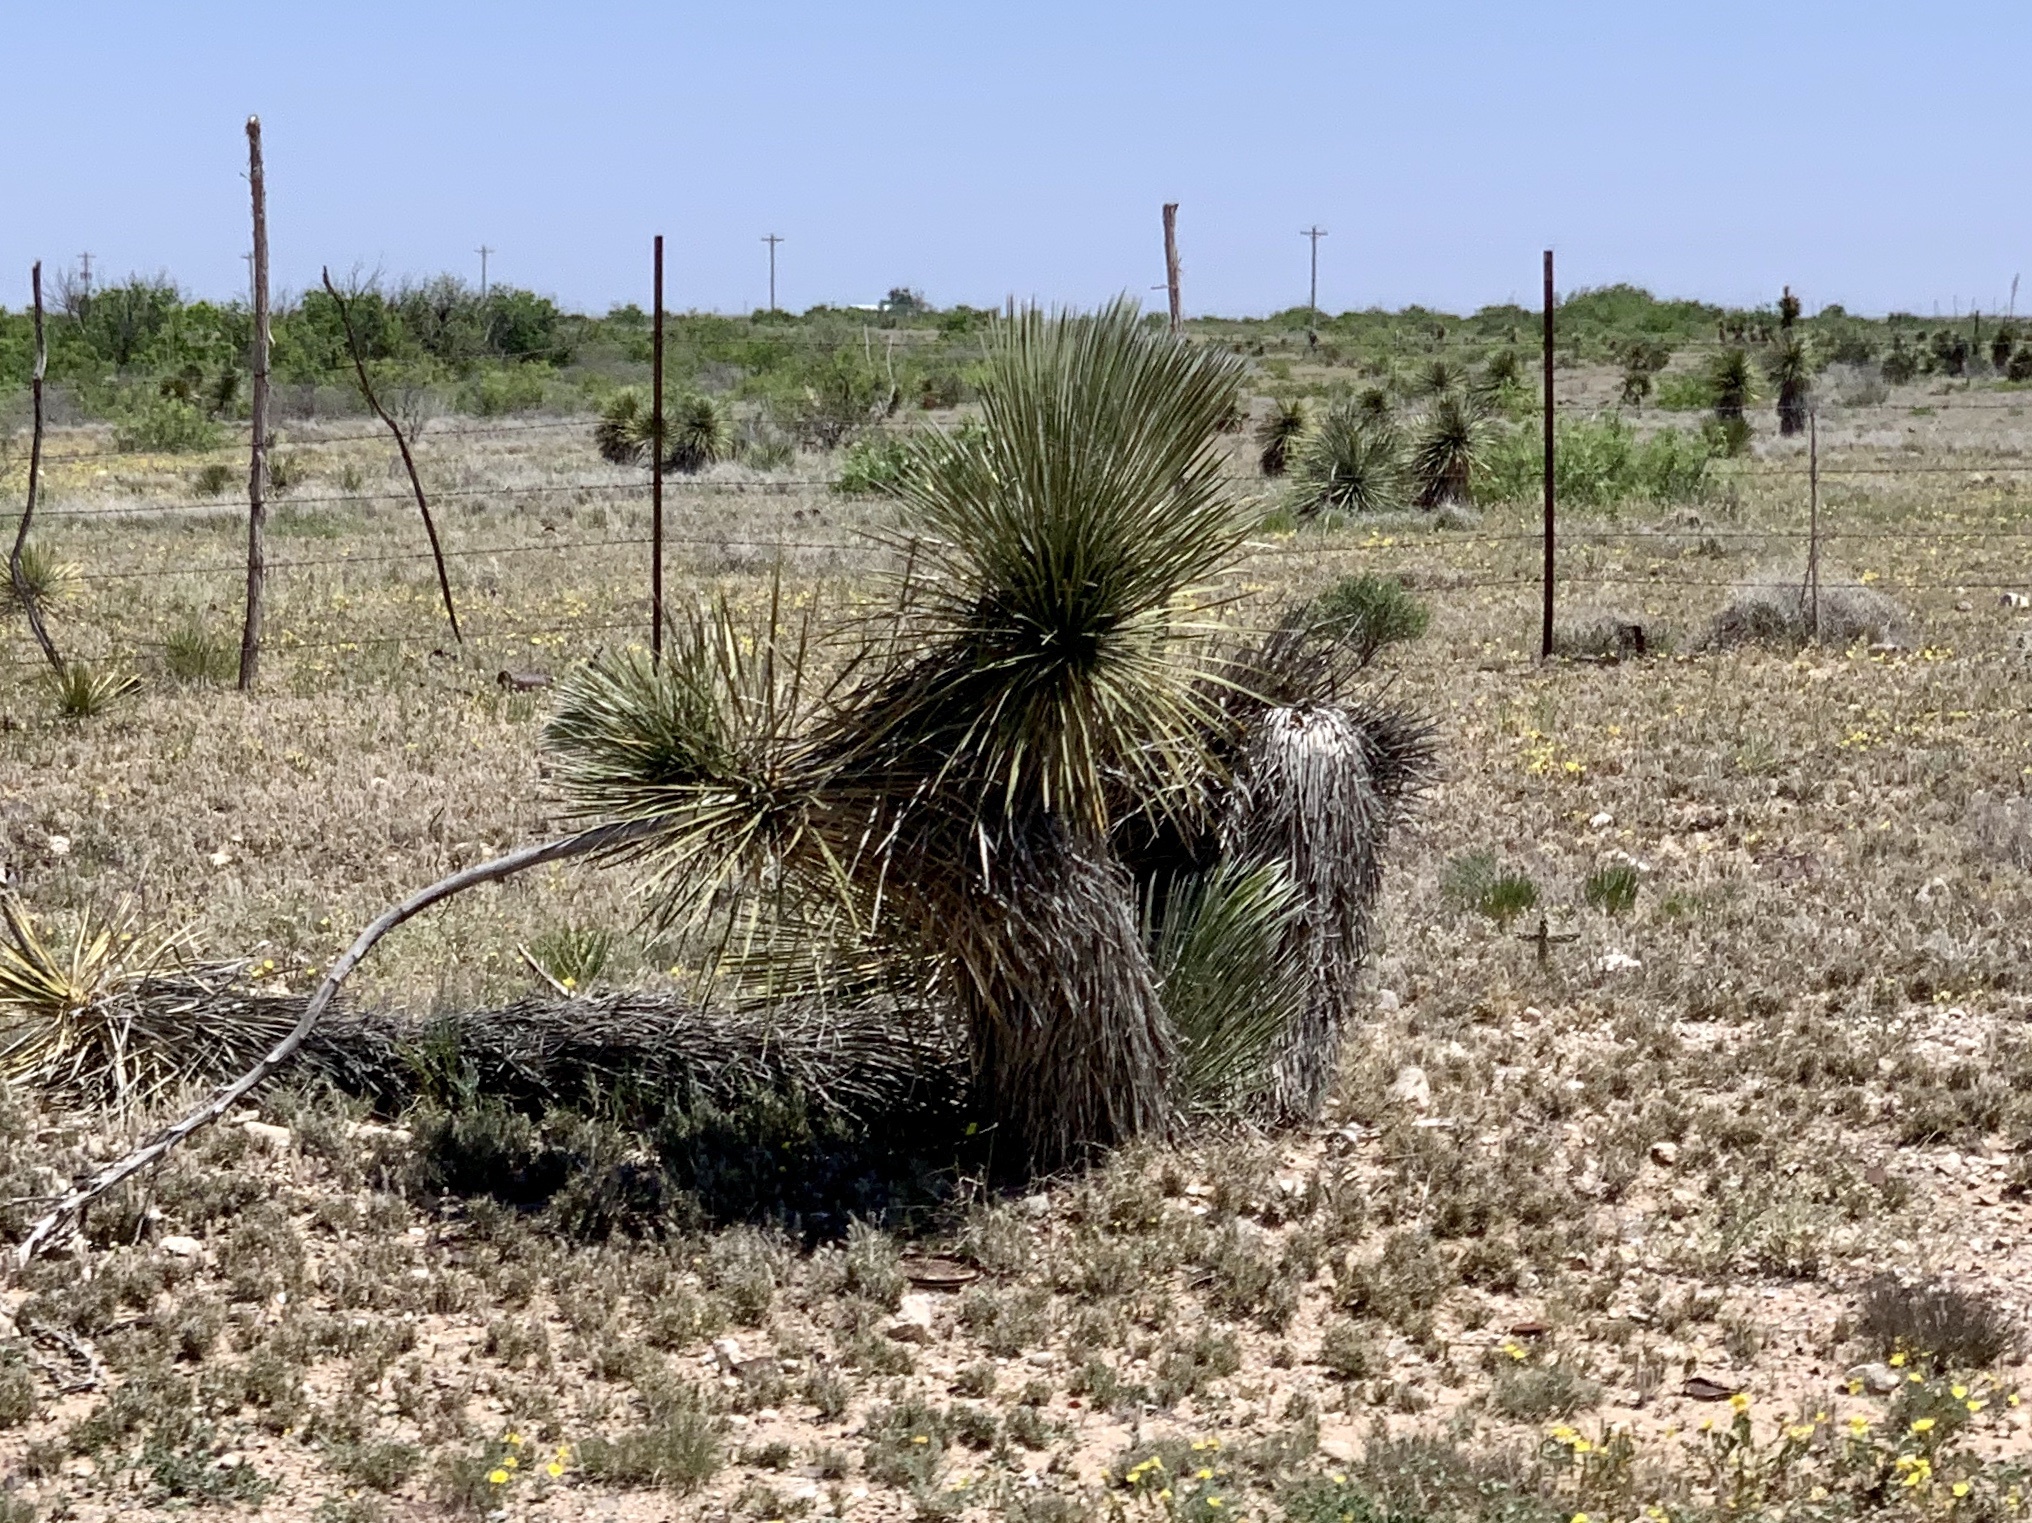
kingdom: Plantae
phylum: Tracheophyta
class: Liliopsida
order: Asparagales
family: Asparagaceae
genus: Yucca
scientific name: Yucca elata
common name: Palmella
